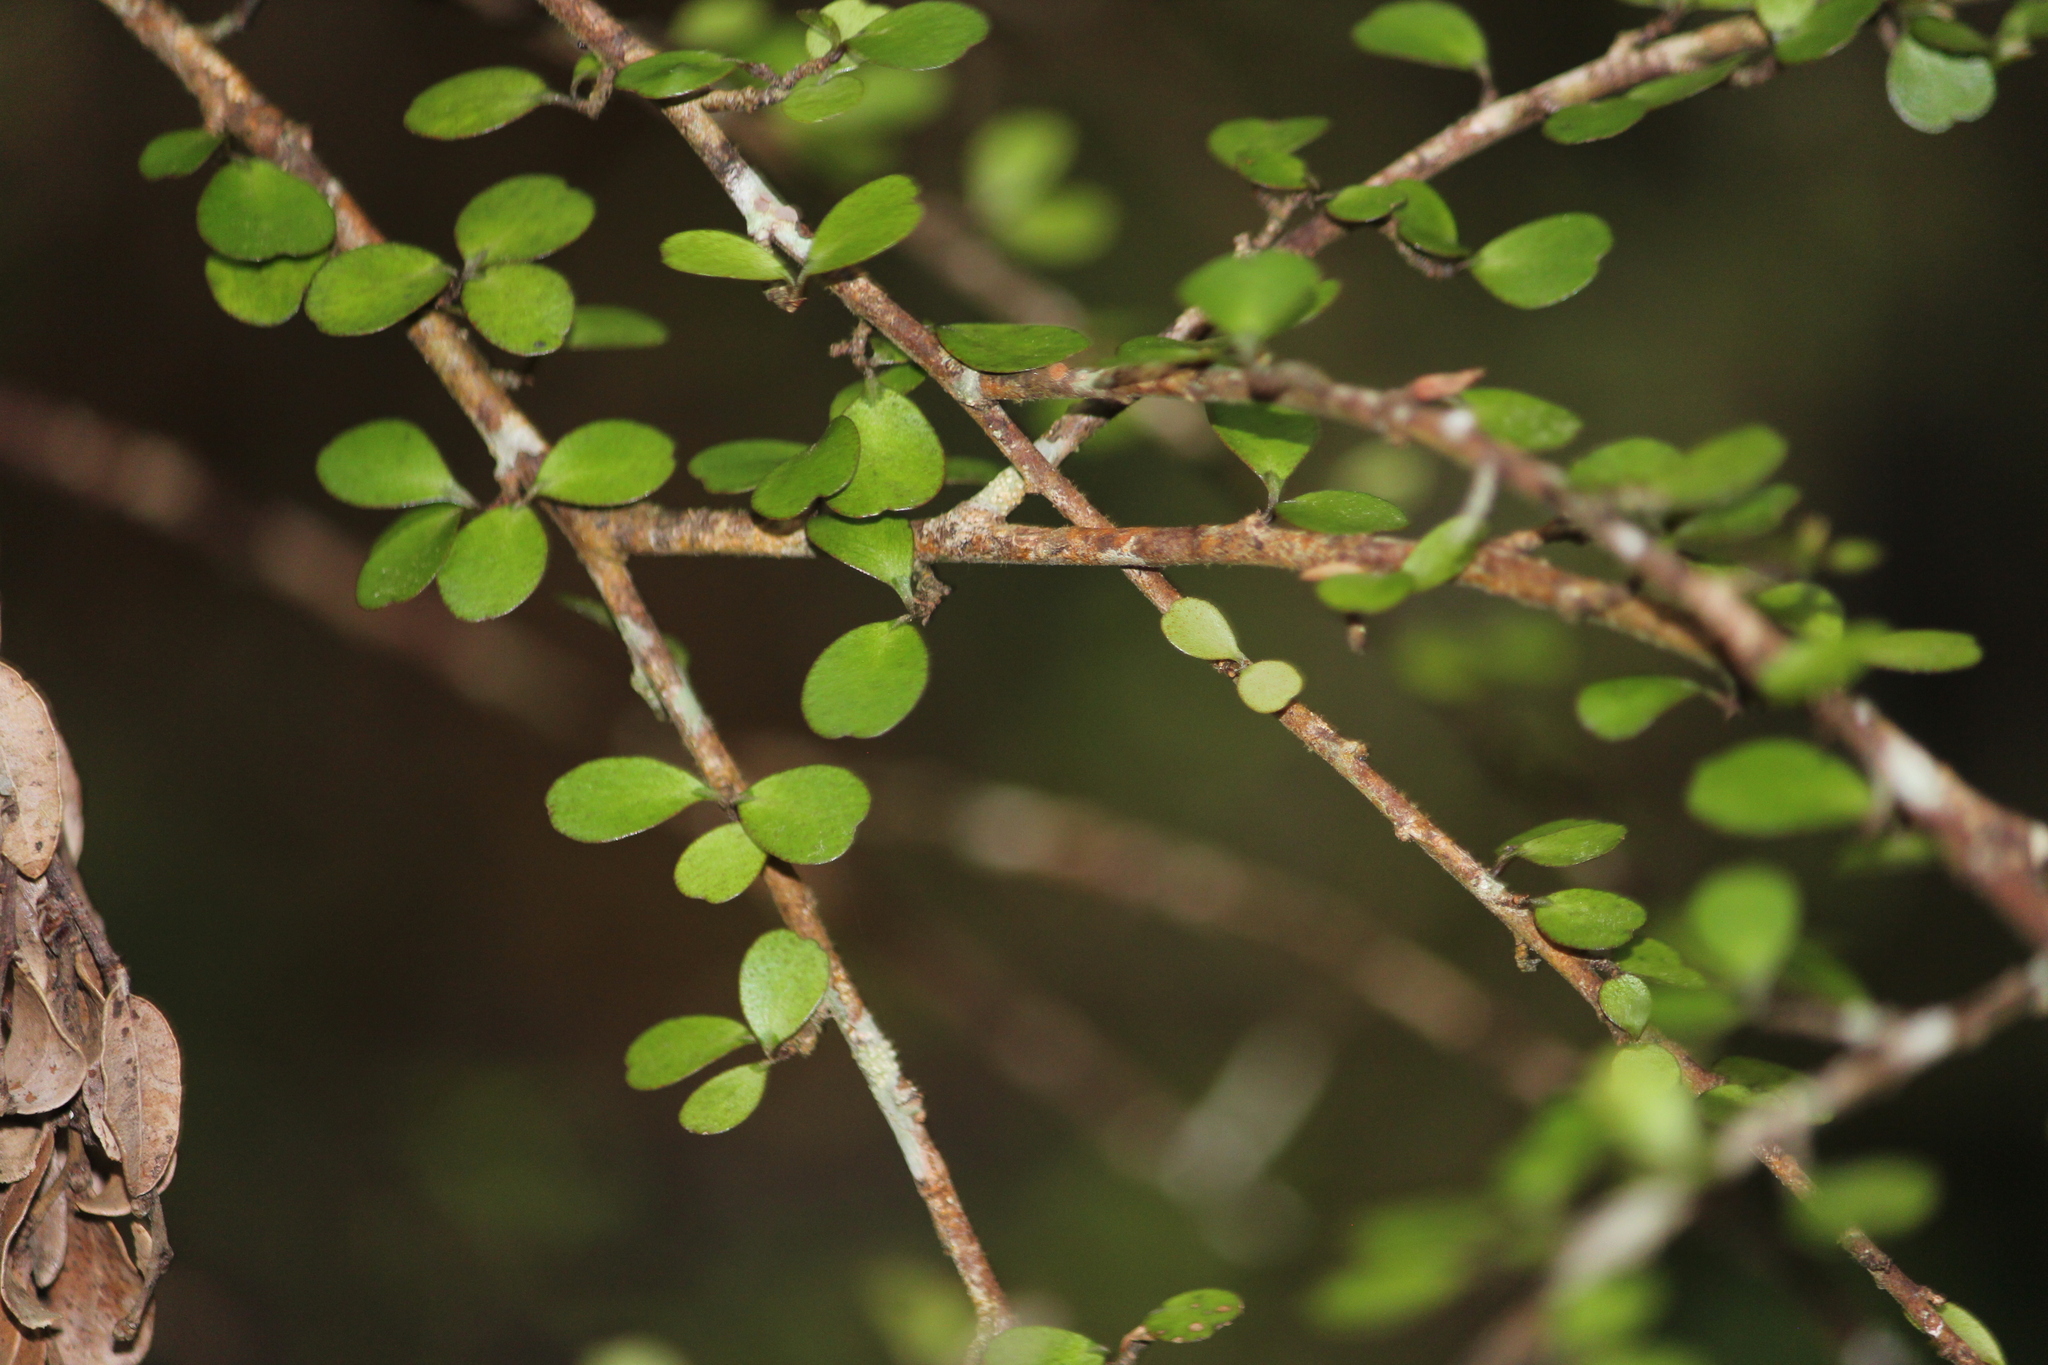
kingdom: Plantae
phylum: Tracheophyta
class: Magnoliopsida
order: Ericales
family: Primulaceae
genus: Myrsine
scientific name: Myrsine divaricata
